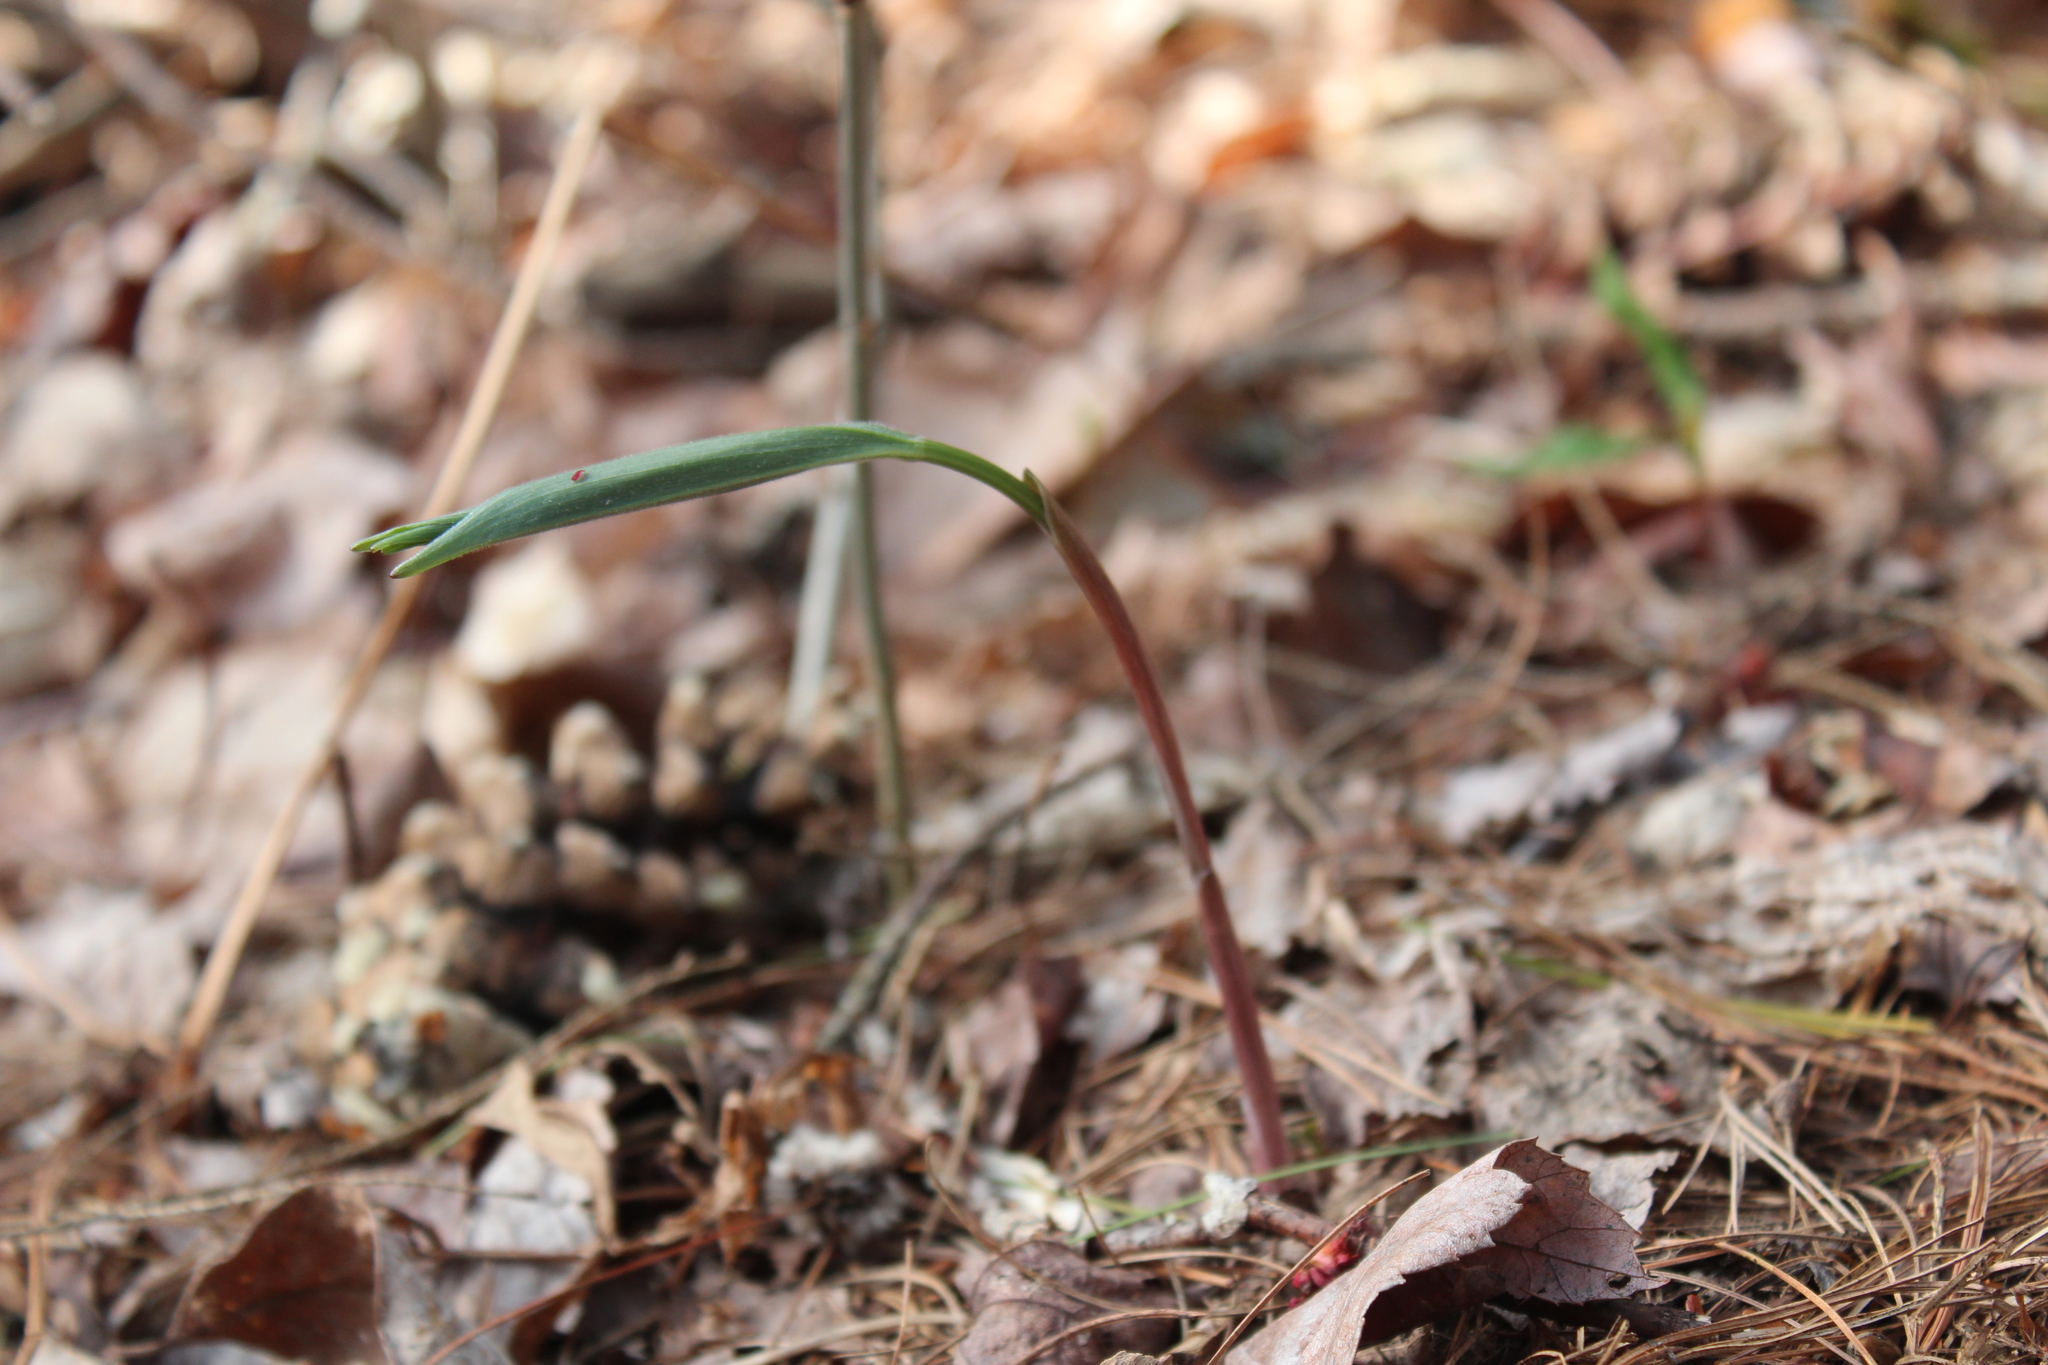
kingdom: Plantae
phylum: Tracheophyta
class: Liliopsida
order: Asparagales
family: Asparagaceae
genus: Maianthemum
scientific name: Maianthemum racemosum
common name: False spikenard
